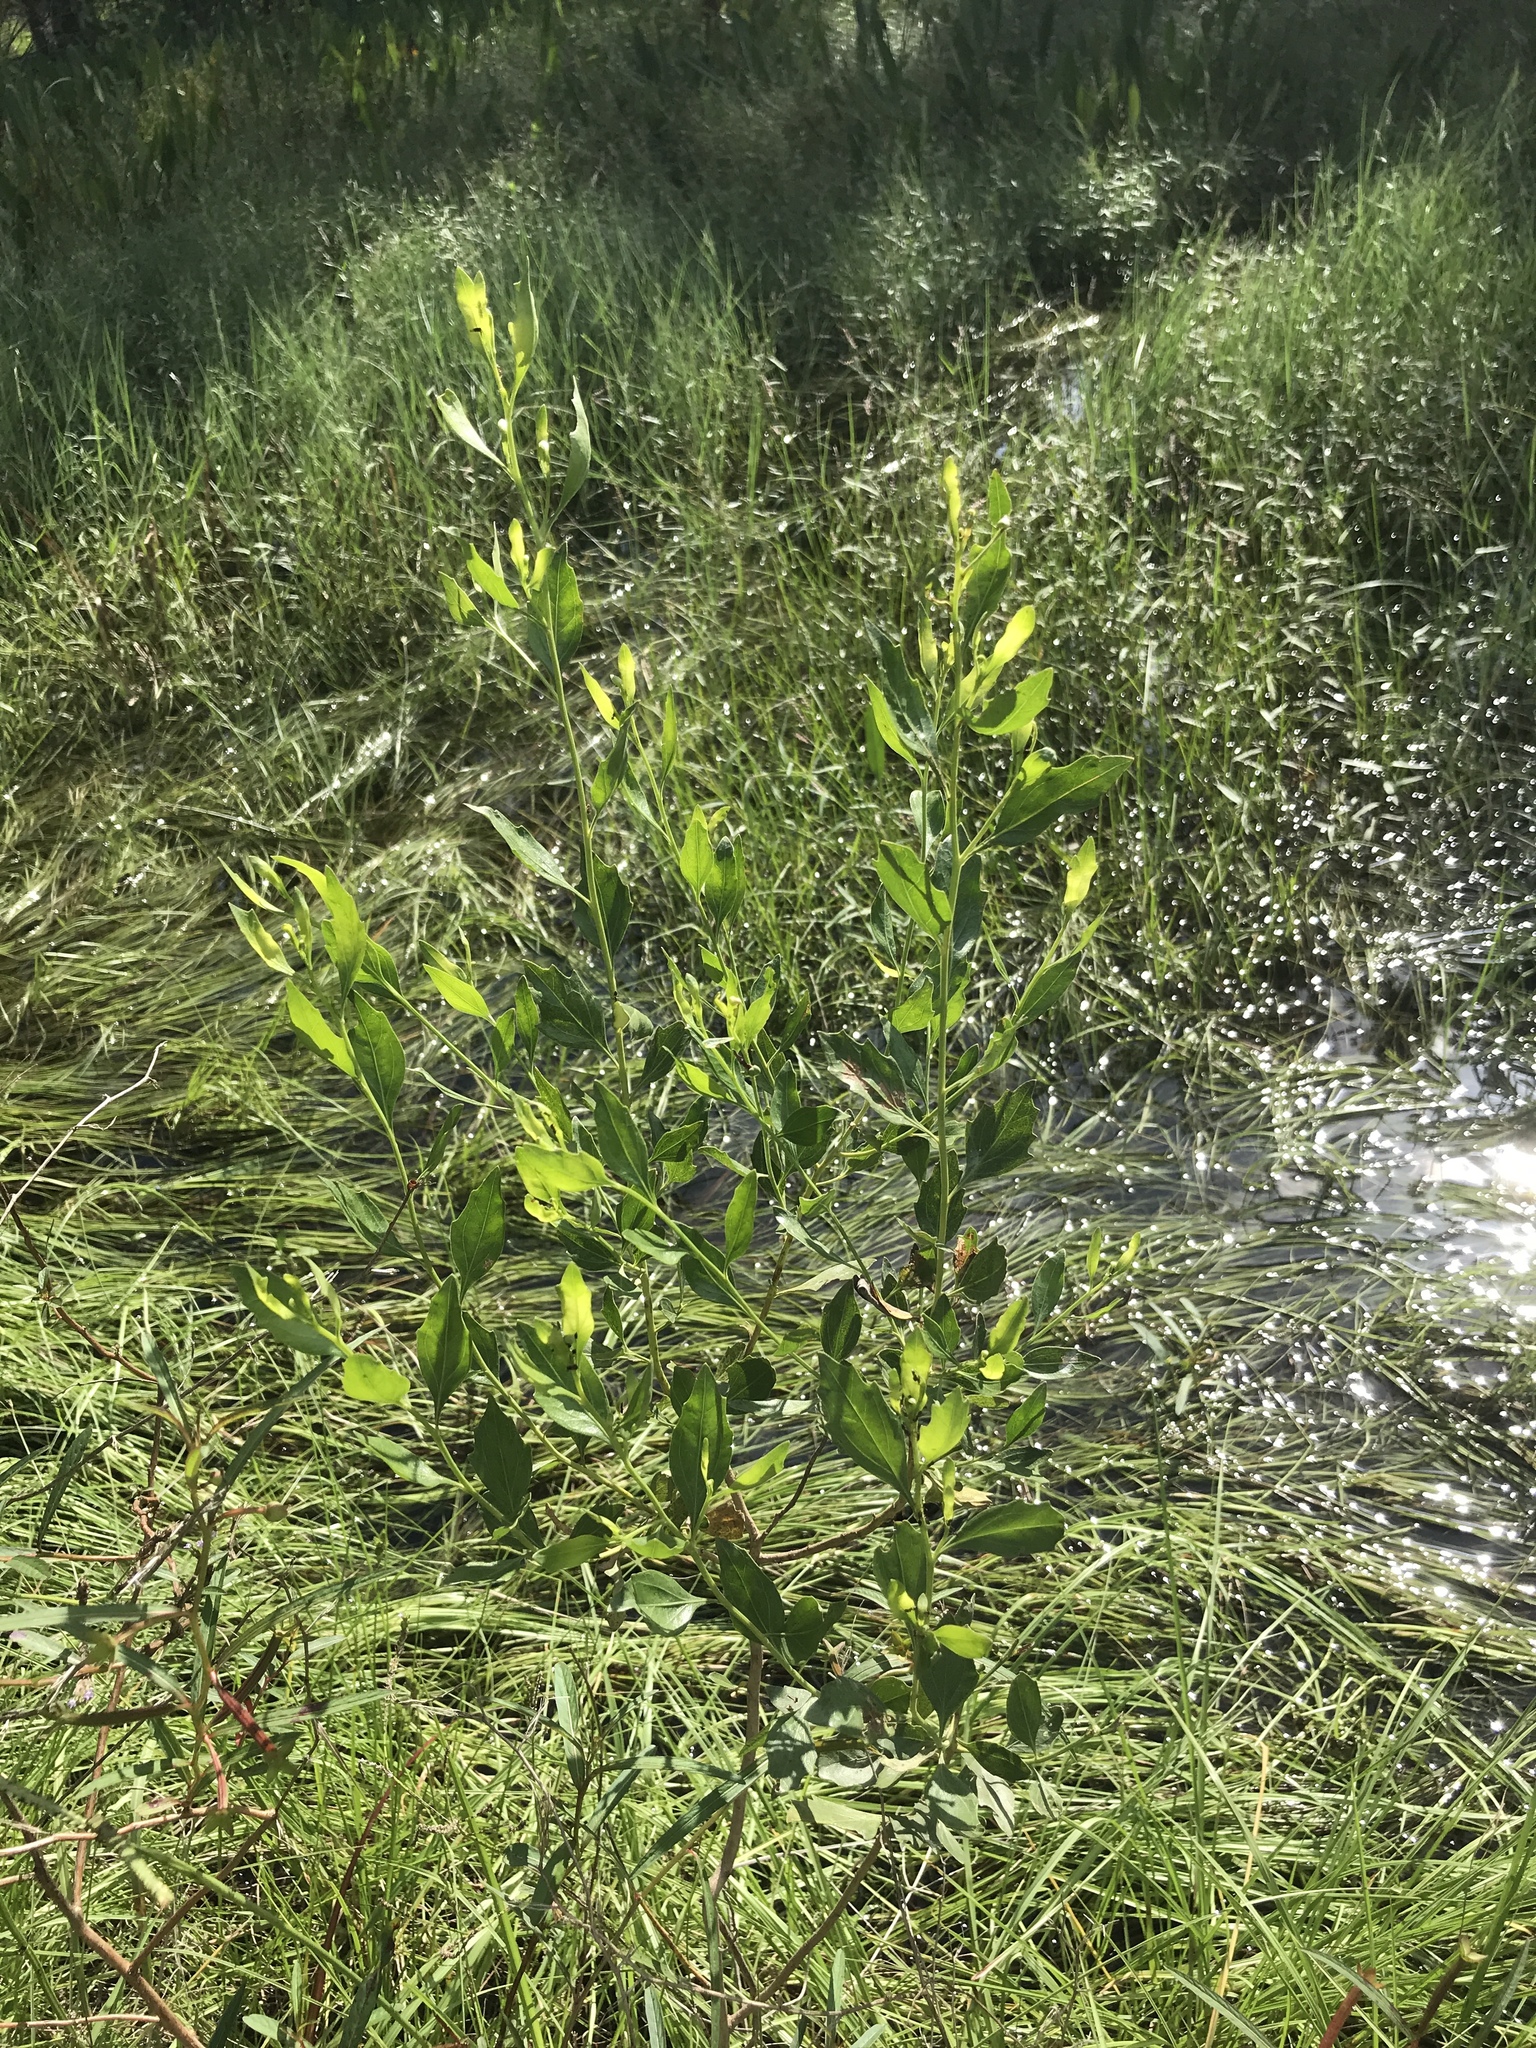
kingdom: Plantae
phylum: Tracheophyta
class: Magnoliopsida
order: Asterales
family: Asteraceae
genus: Baccharis
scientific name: Baccharis halimifolia
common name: Eastern baccharis
